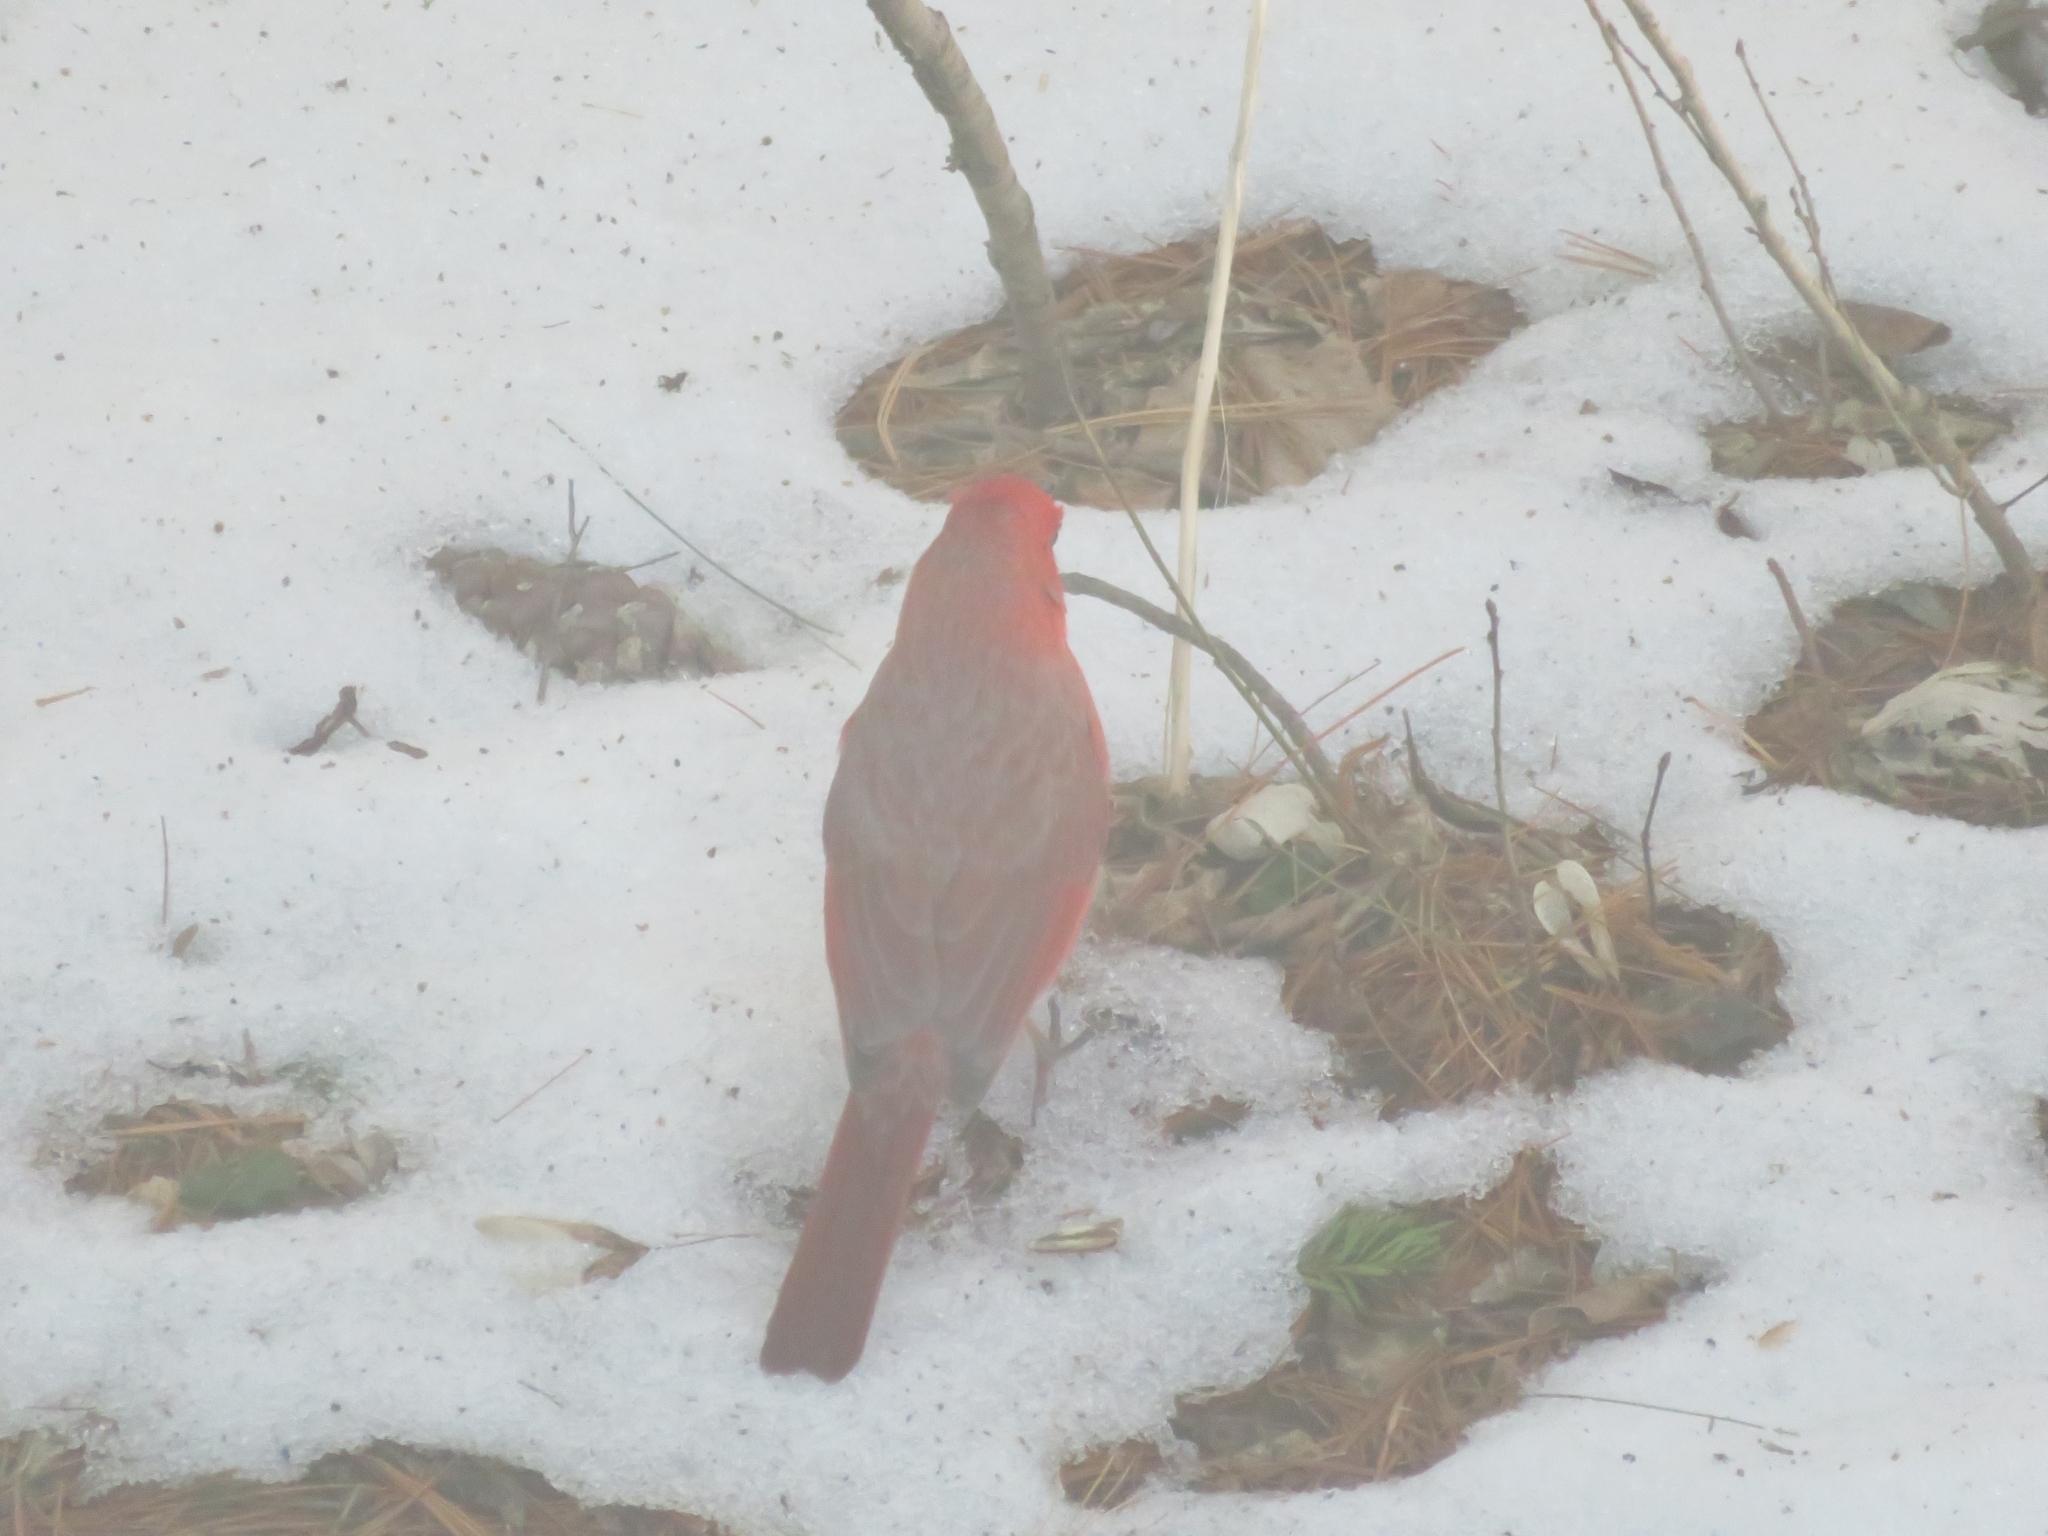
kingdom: Animalia
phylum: Chordata
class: Aves
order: Passeriformes
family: Cardinalidae
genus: Cardinalis
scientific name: Cardinalis cardinalis
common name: Northern cardinal
